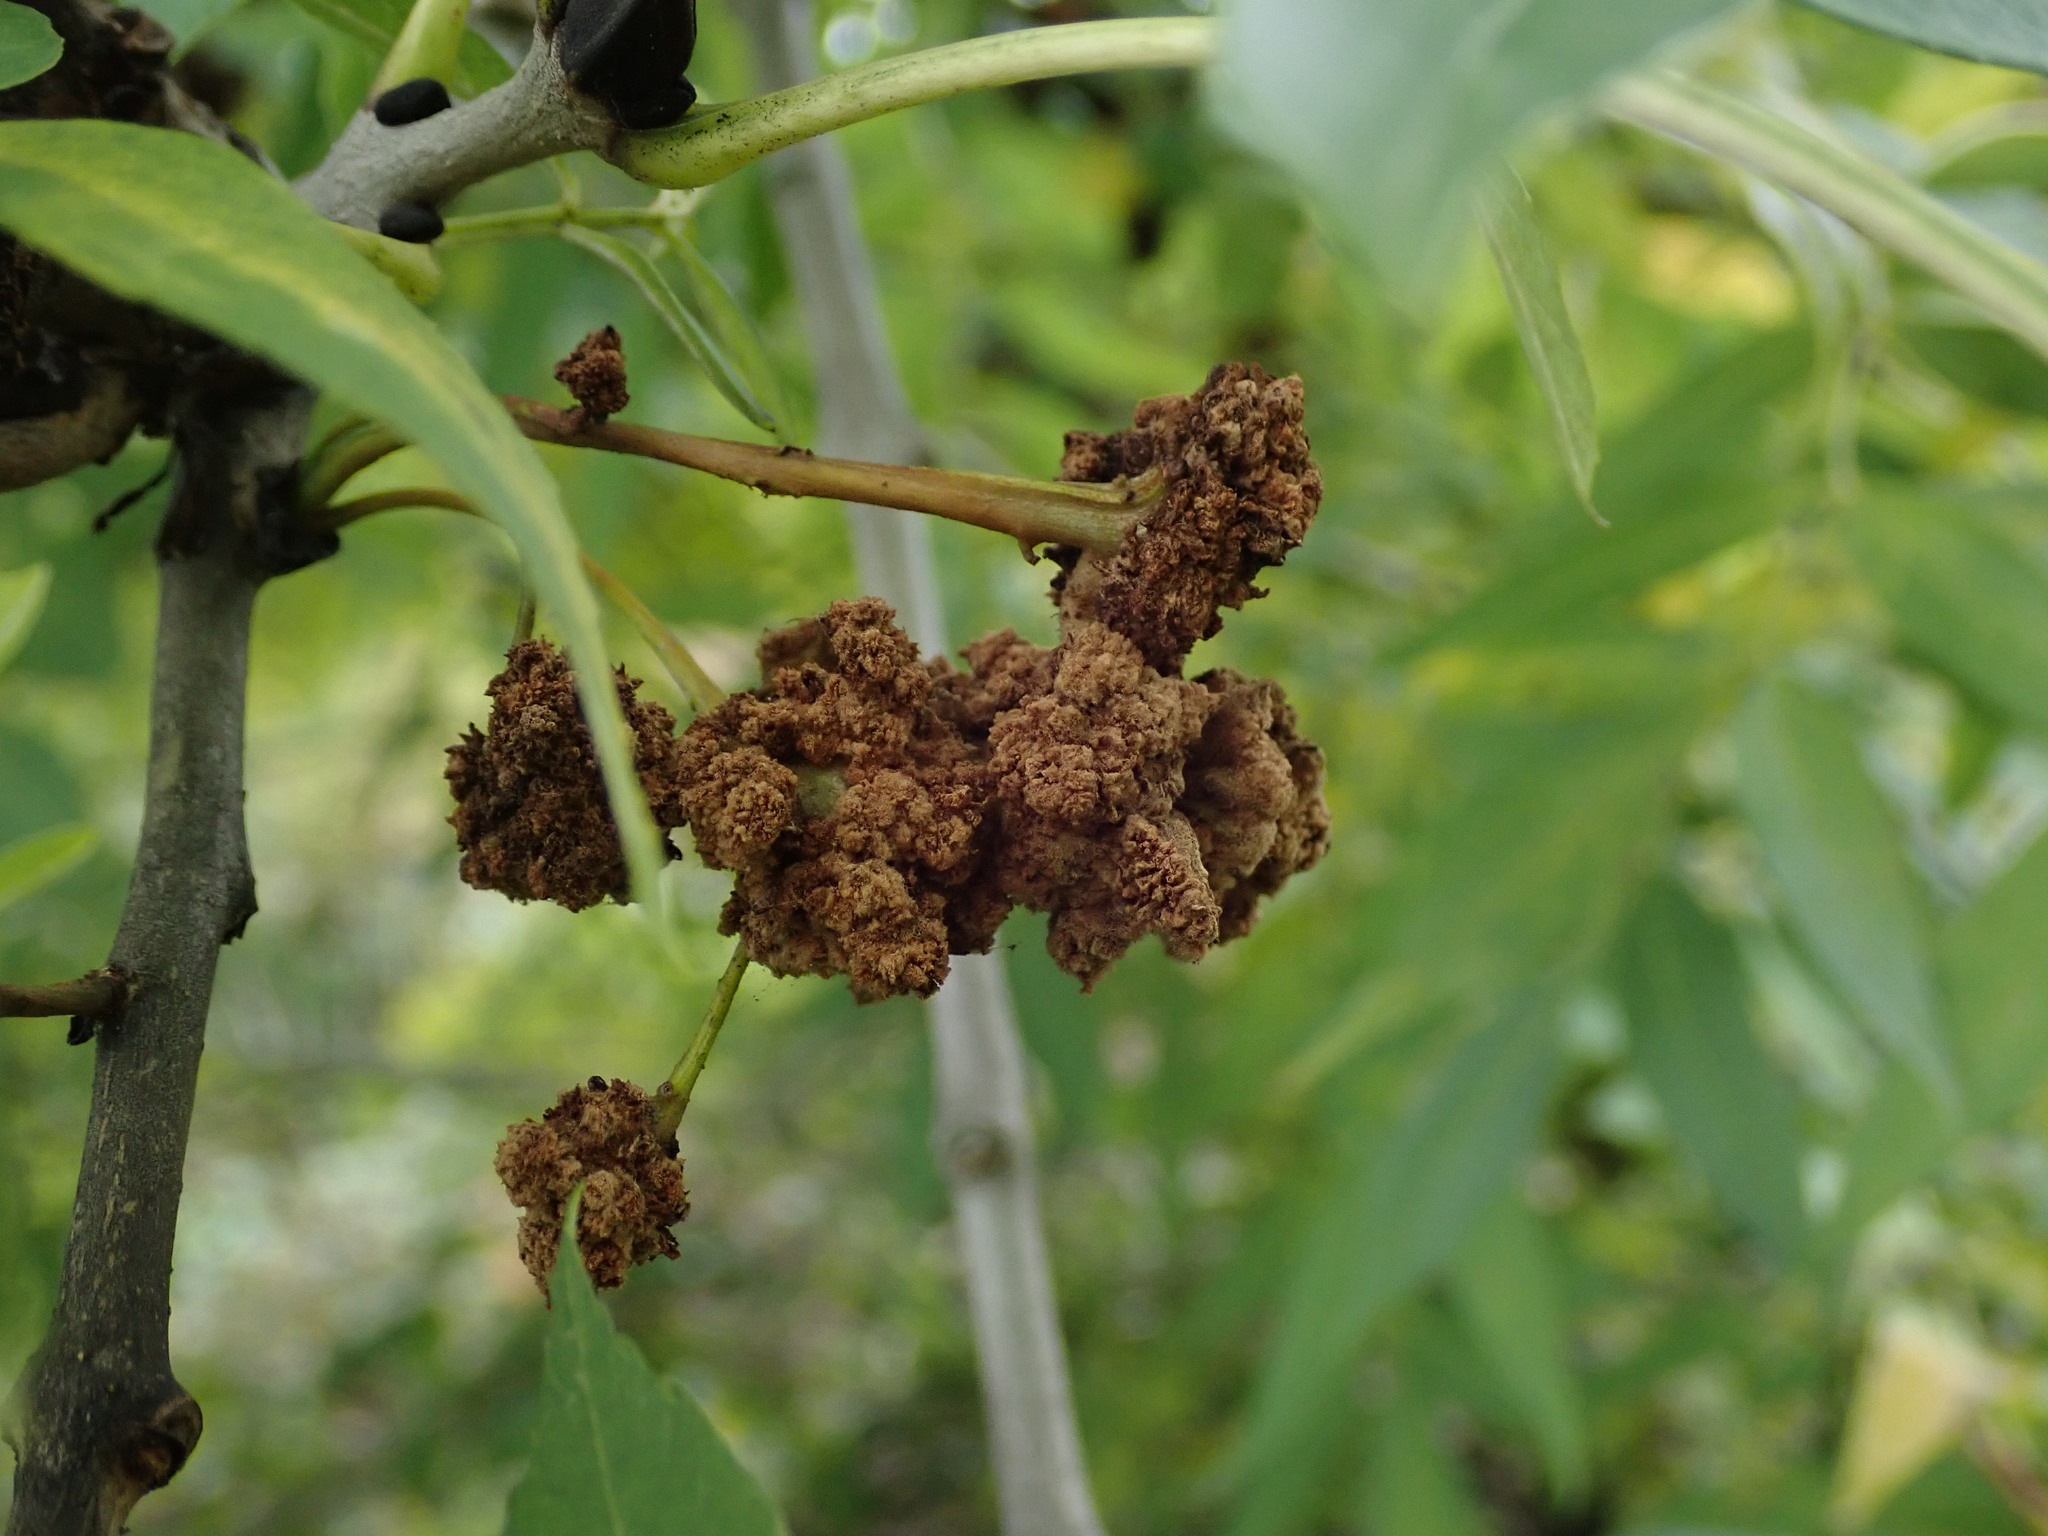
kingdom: Animalia
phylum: Arthropoda
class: Arachnida
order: Trombidiformes
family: Eriophyidae
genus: Aceria
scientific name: Aceria fraxinivora
